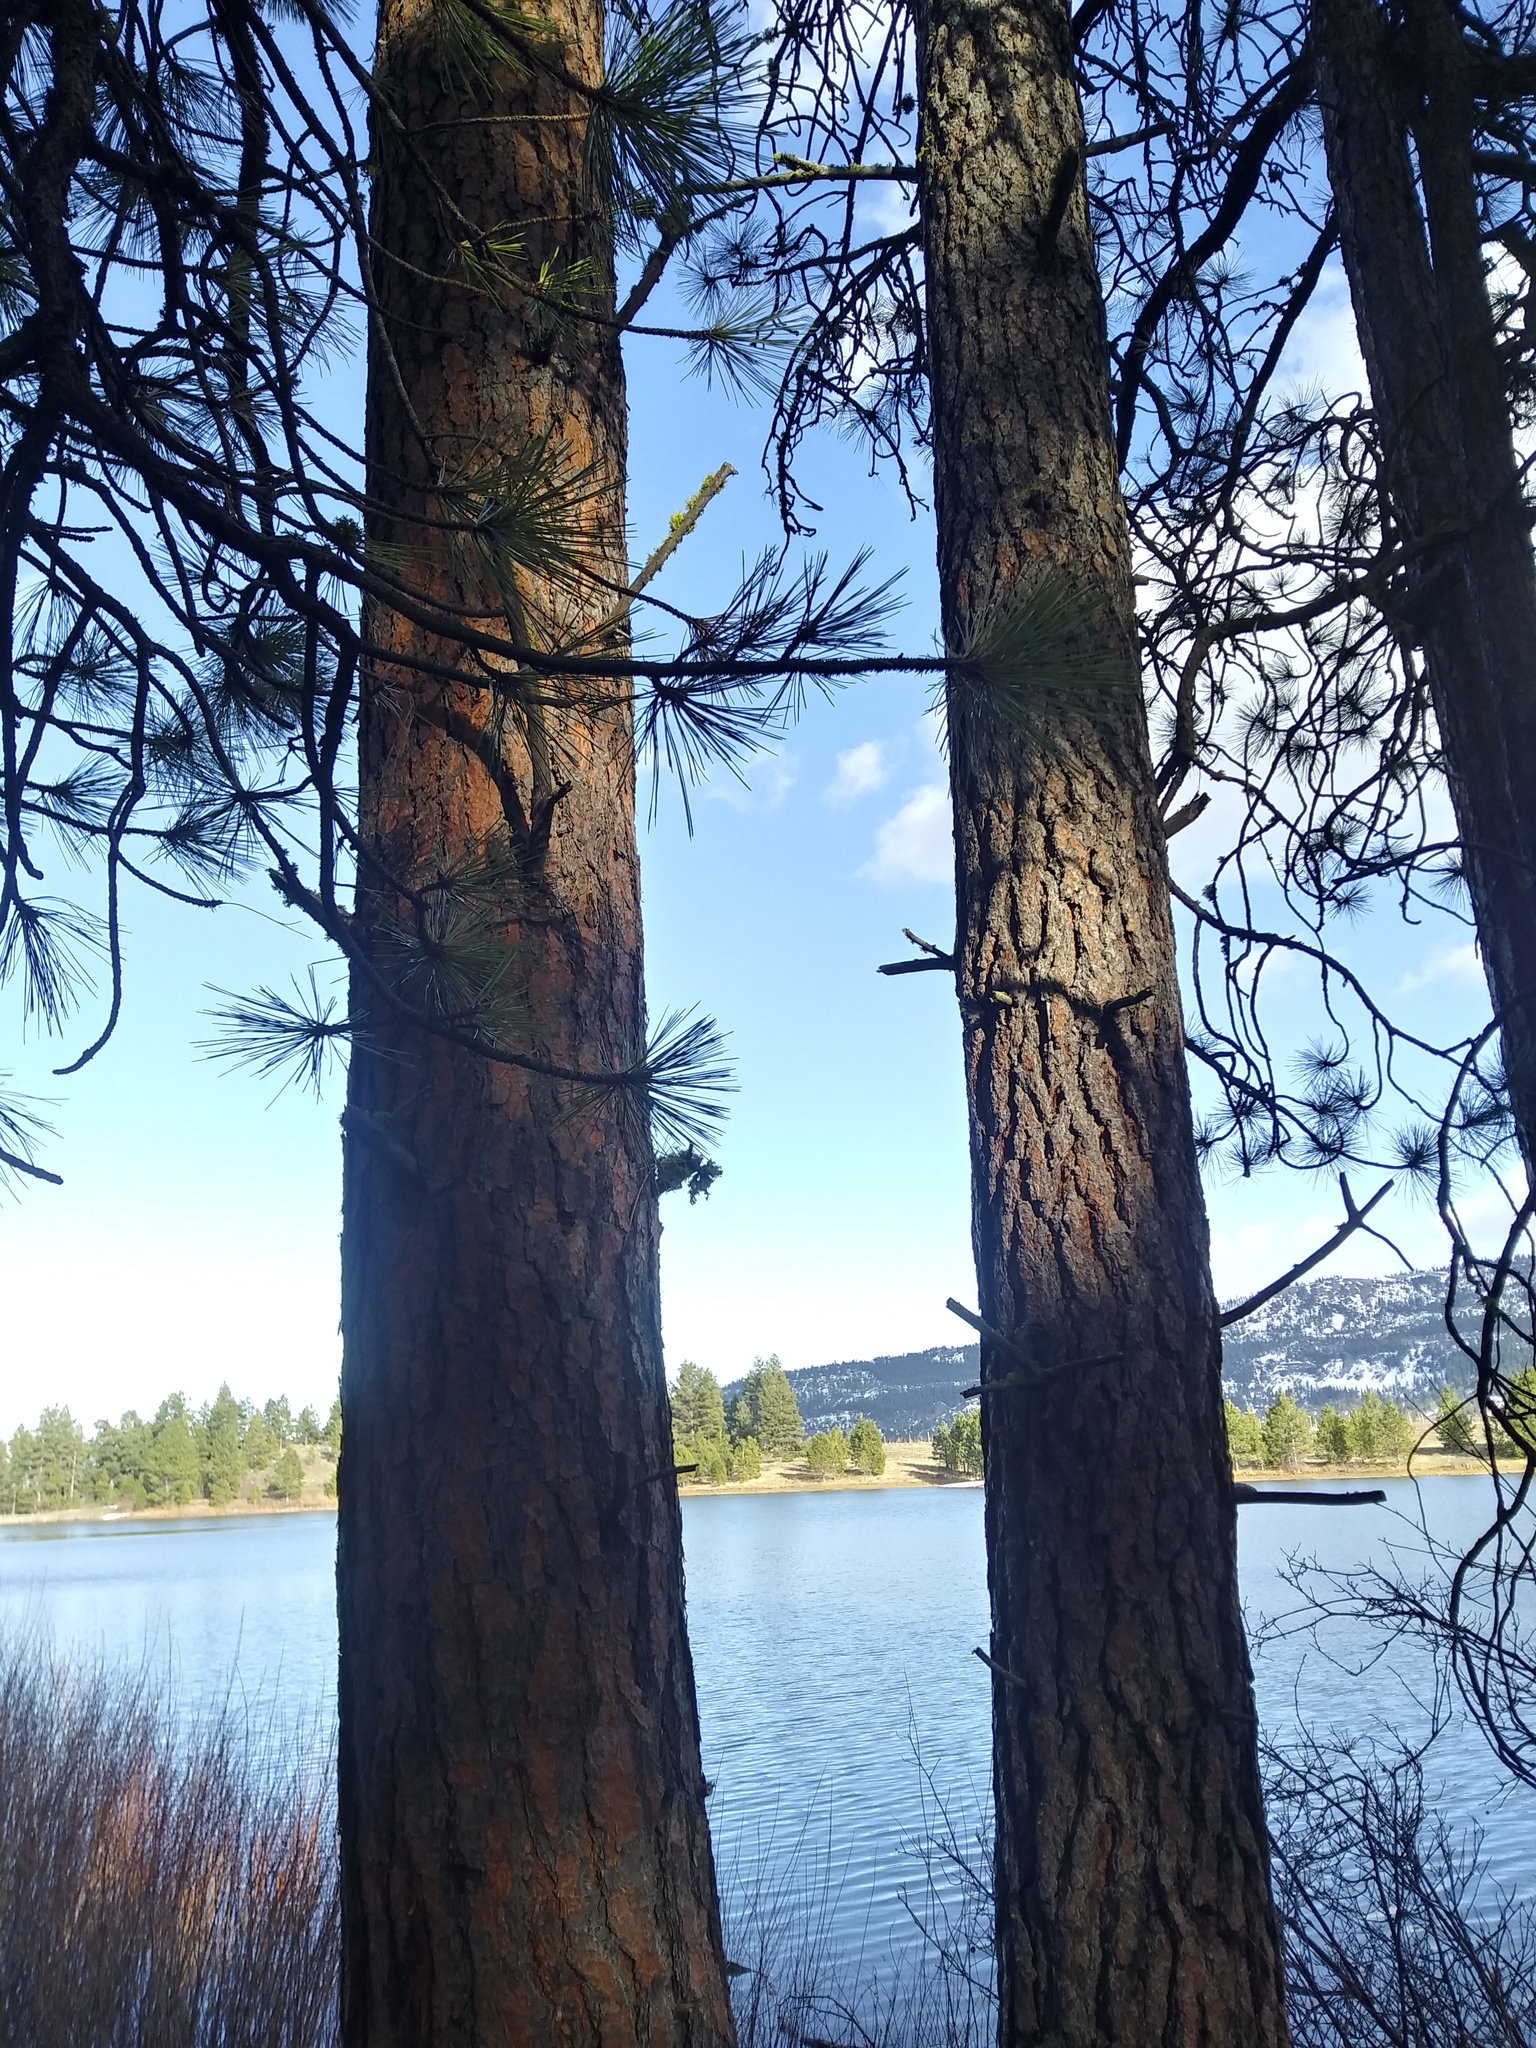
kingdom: Plantae
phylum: Tracheophyta
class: Pinopsida
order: Pinales
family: Pinaceae
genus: Pinus
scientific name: Pinus ponderosa
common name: Western yellow-pine
